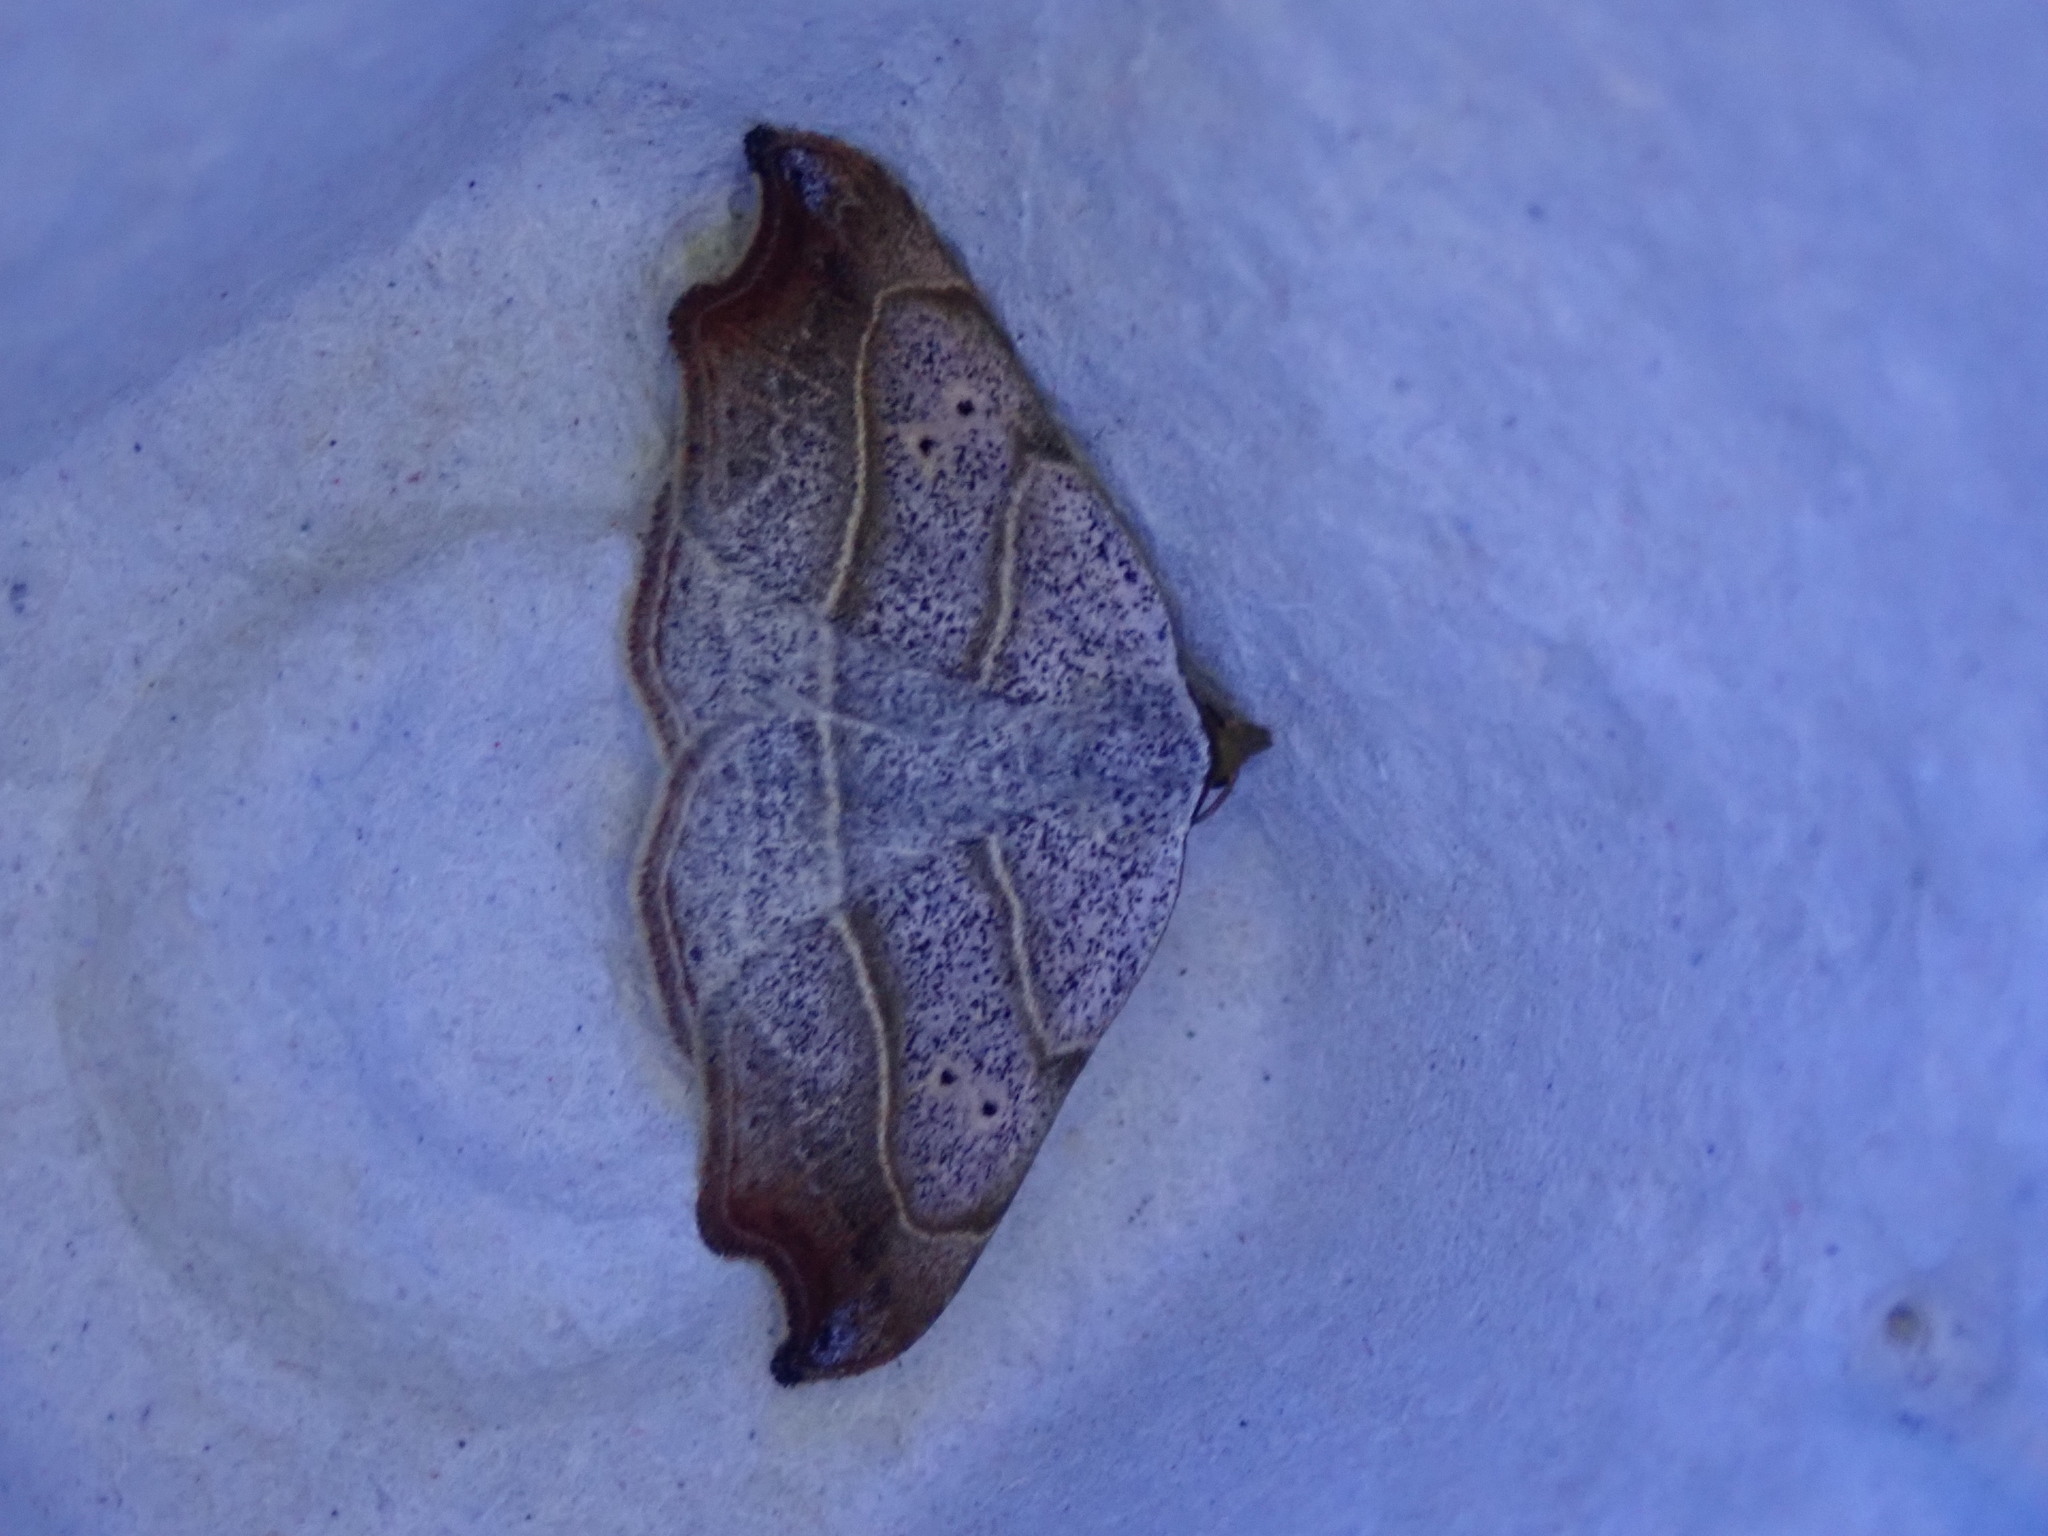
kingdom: Animalia
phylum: Arthropoda
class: Insecta
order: Lepidoptera
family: Erebidae
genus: Laspeyria
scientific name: Laspeyria flexula
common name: Beautiful hook-tip
